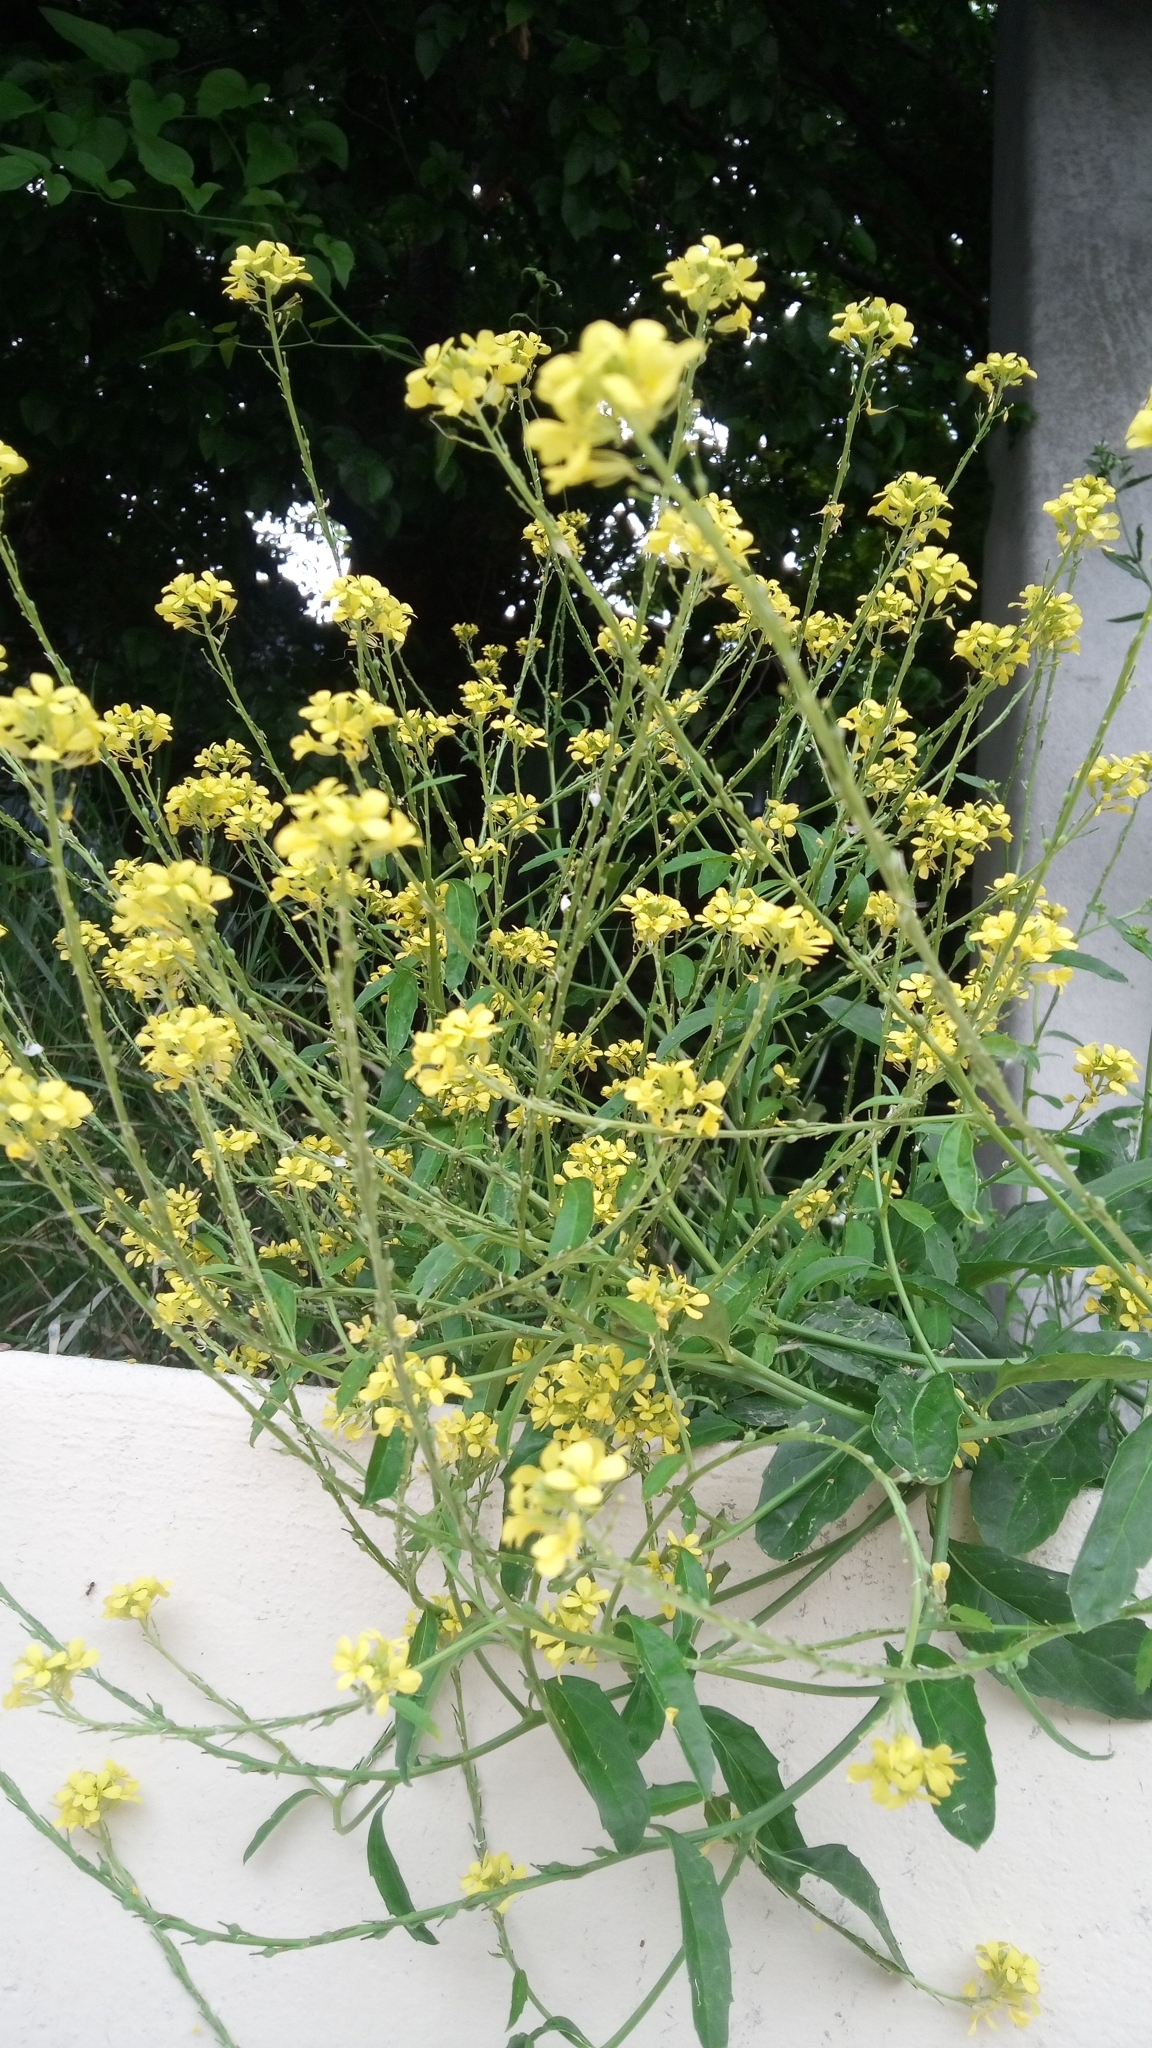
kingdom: Plantae
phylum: Tracheophyta
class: Magnoliopsida
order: Brassicales
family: Brassicaceae
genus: Rapistrum
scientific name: Rapistrum rugosum
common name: Annual bastardcabbage
